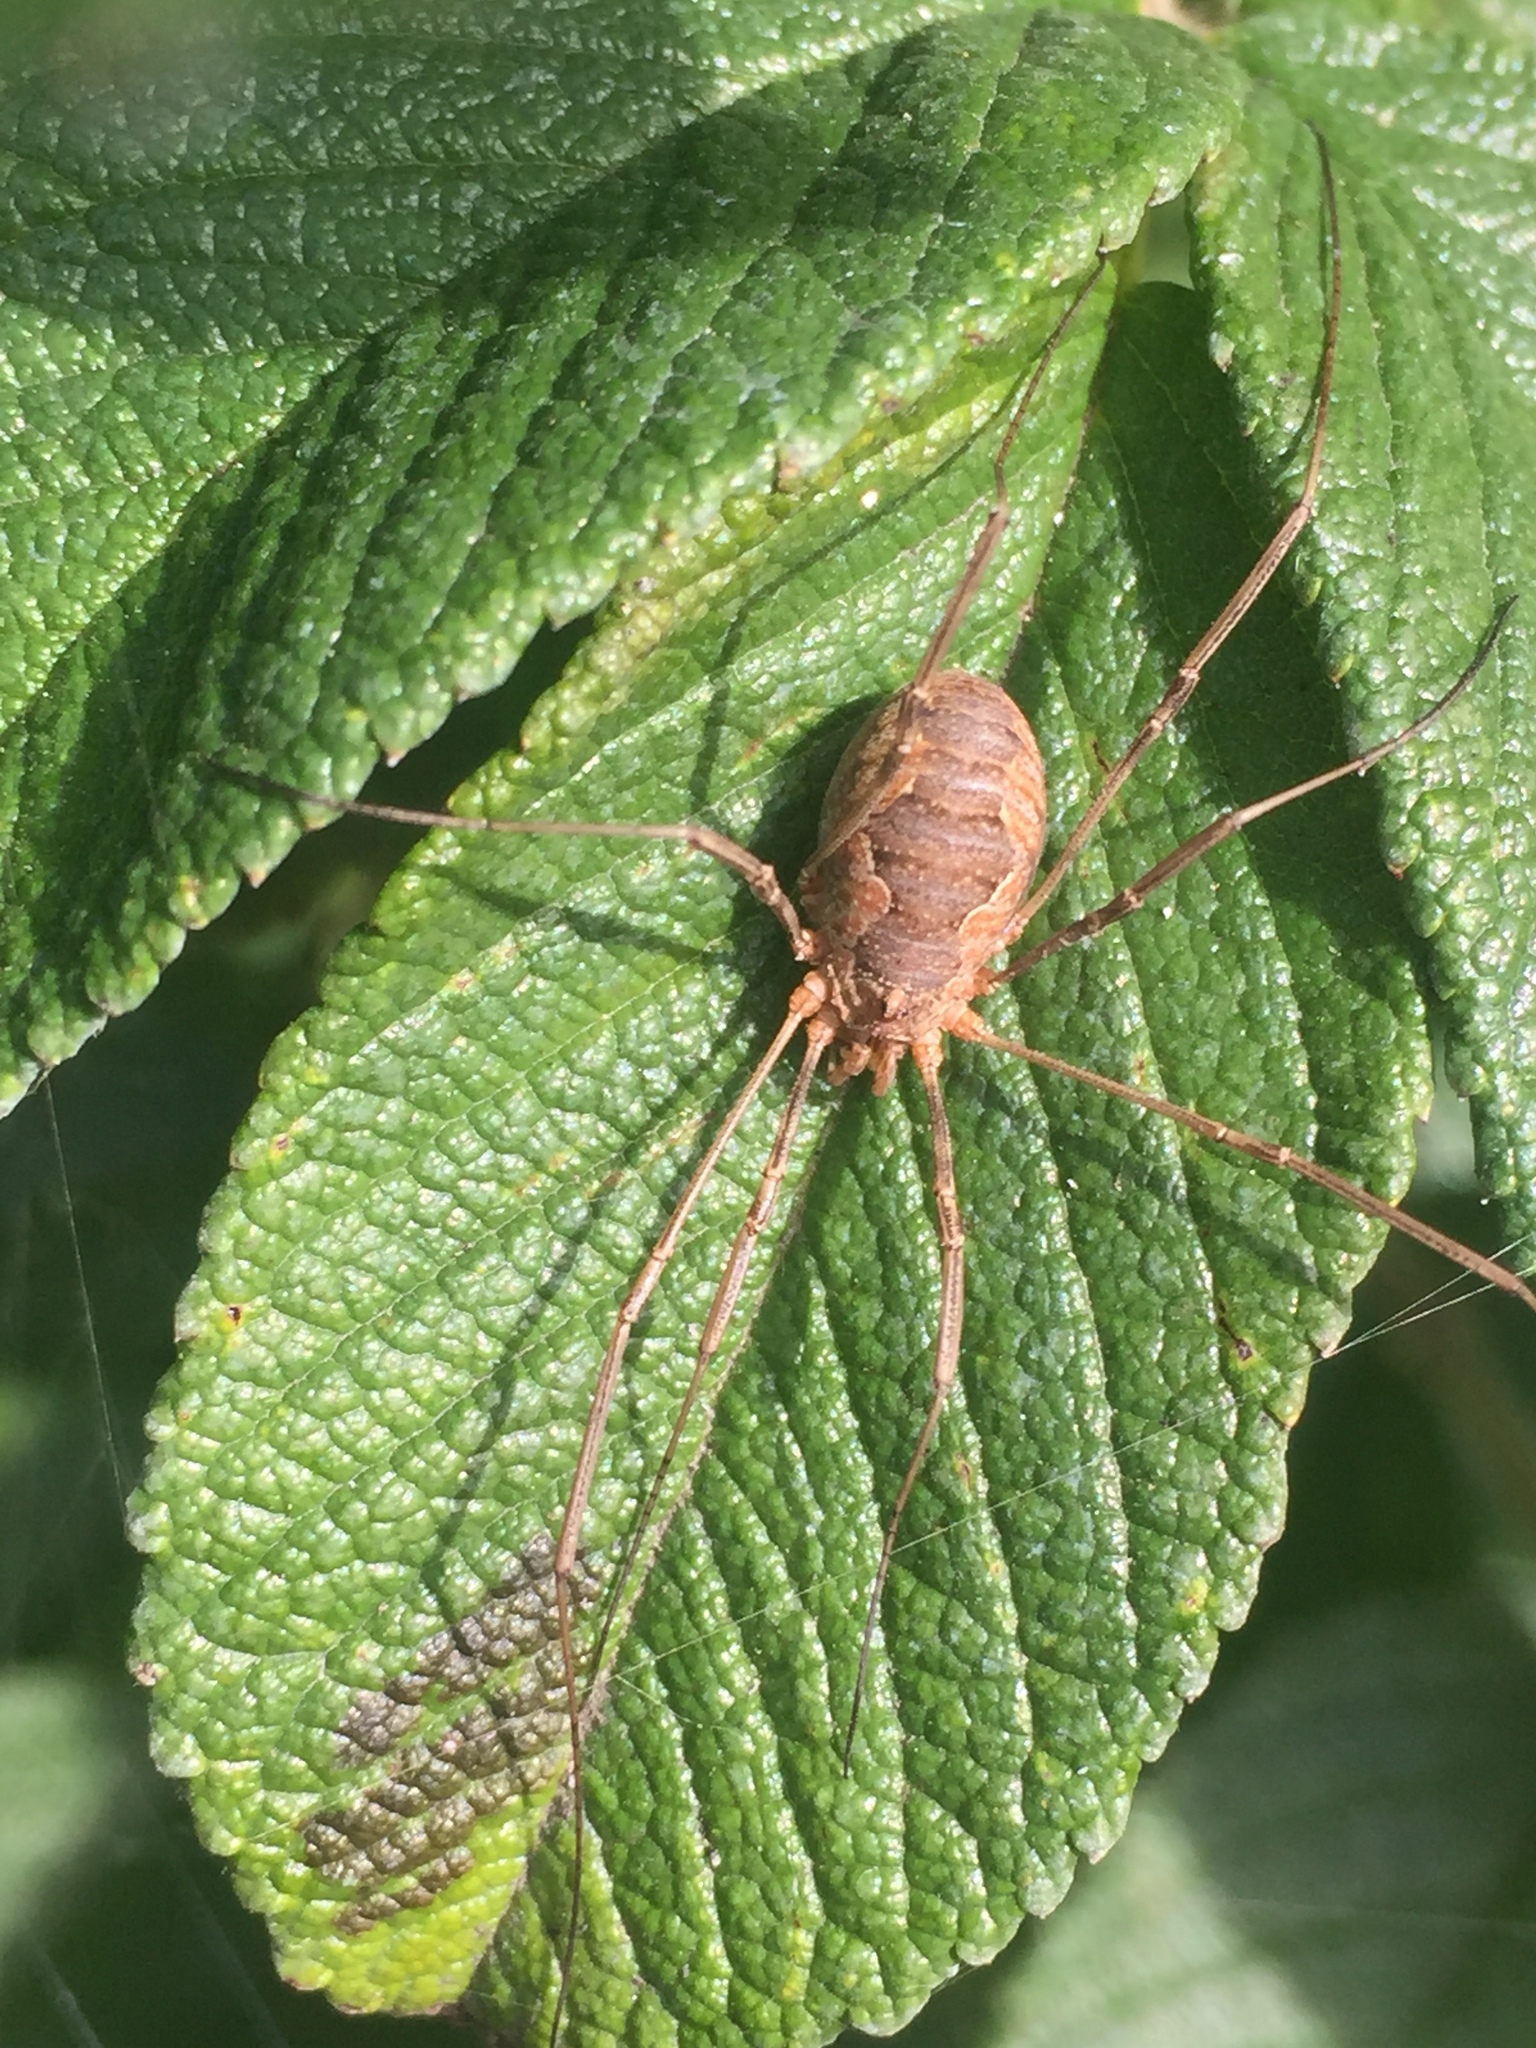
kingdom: Animalia
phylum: Arthropoda
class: Arachnida
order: Opiliones
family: Phalangiidae
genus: Phalangium
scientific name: Phalangium opilio
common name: Daddy longleg
